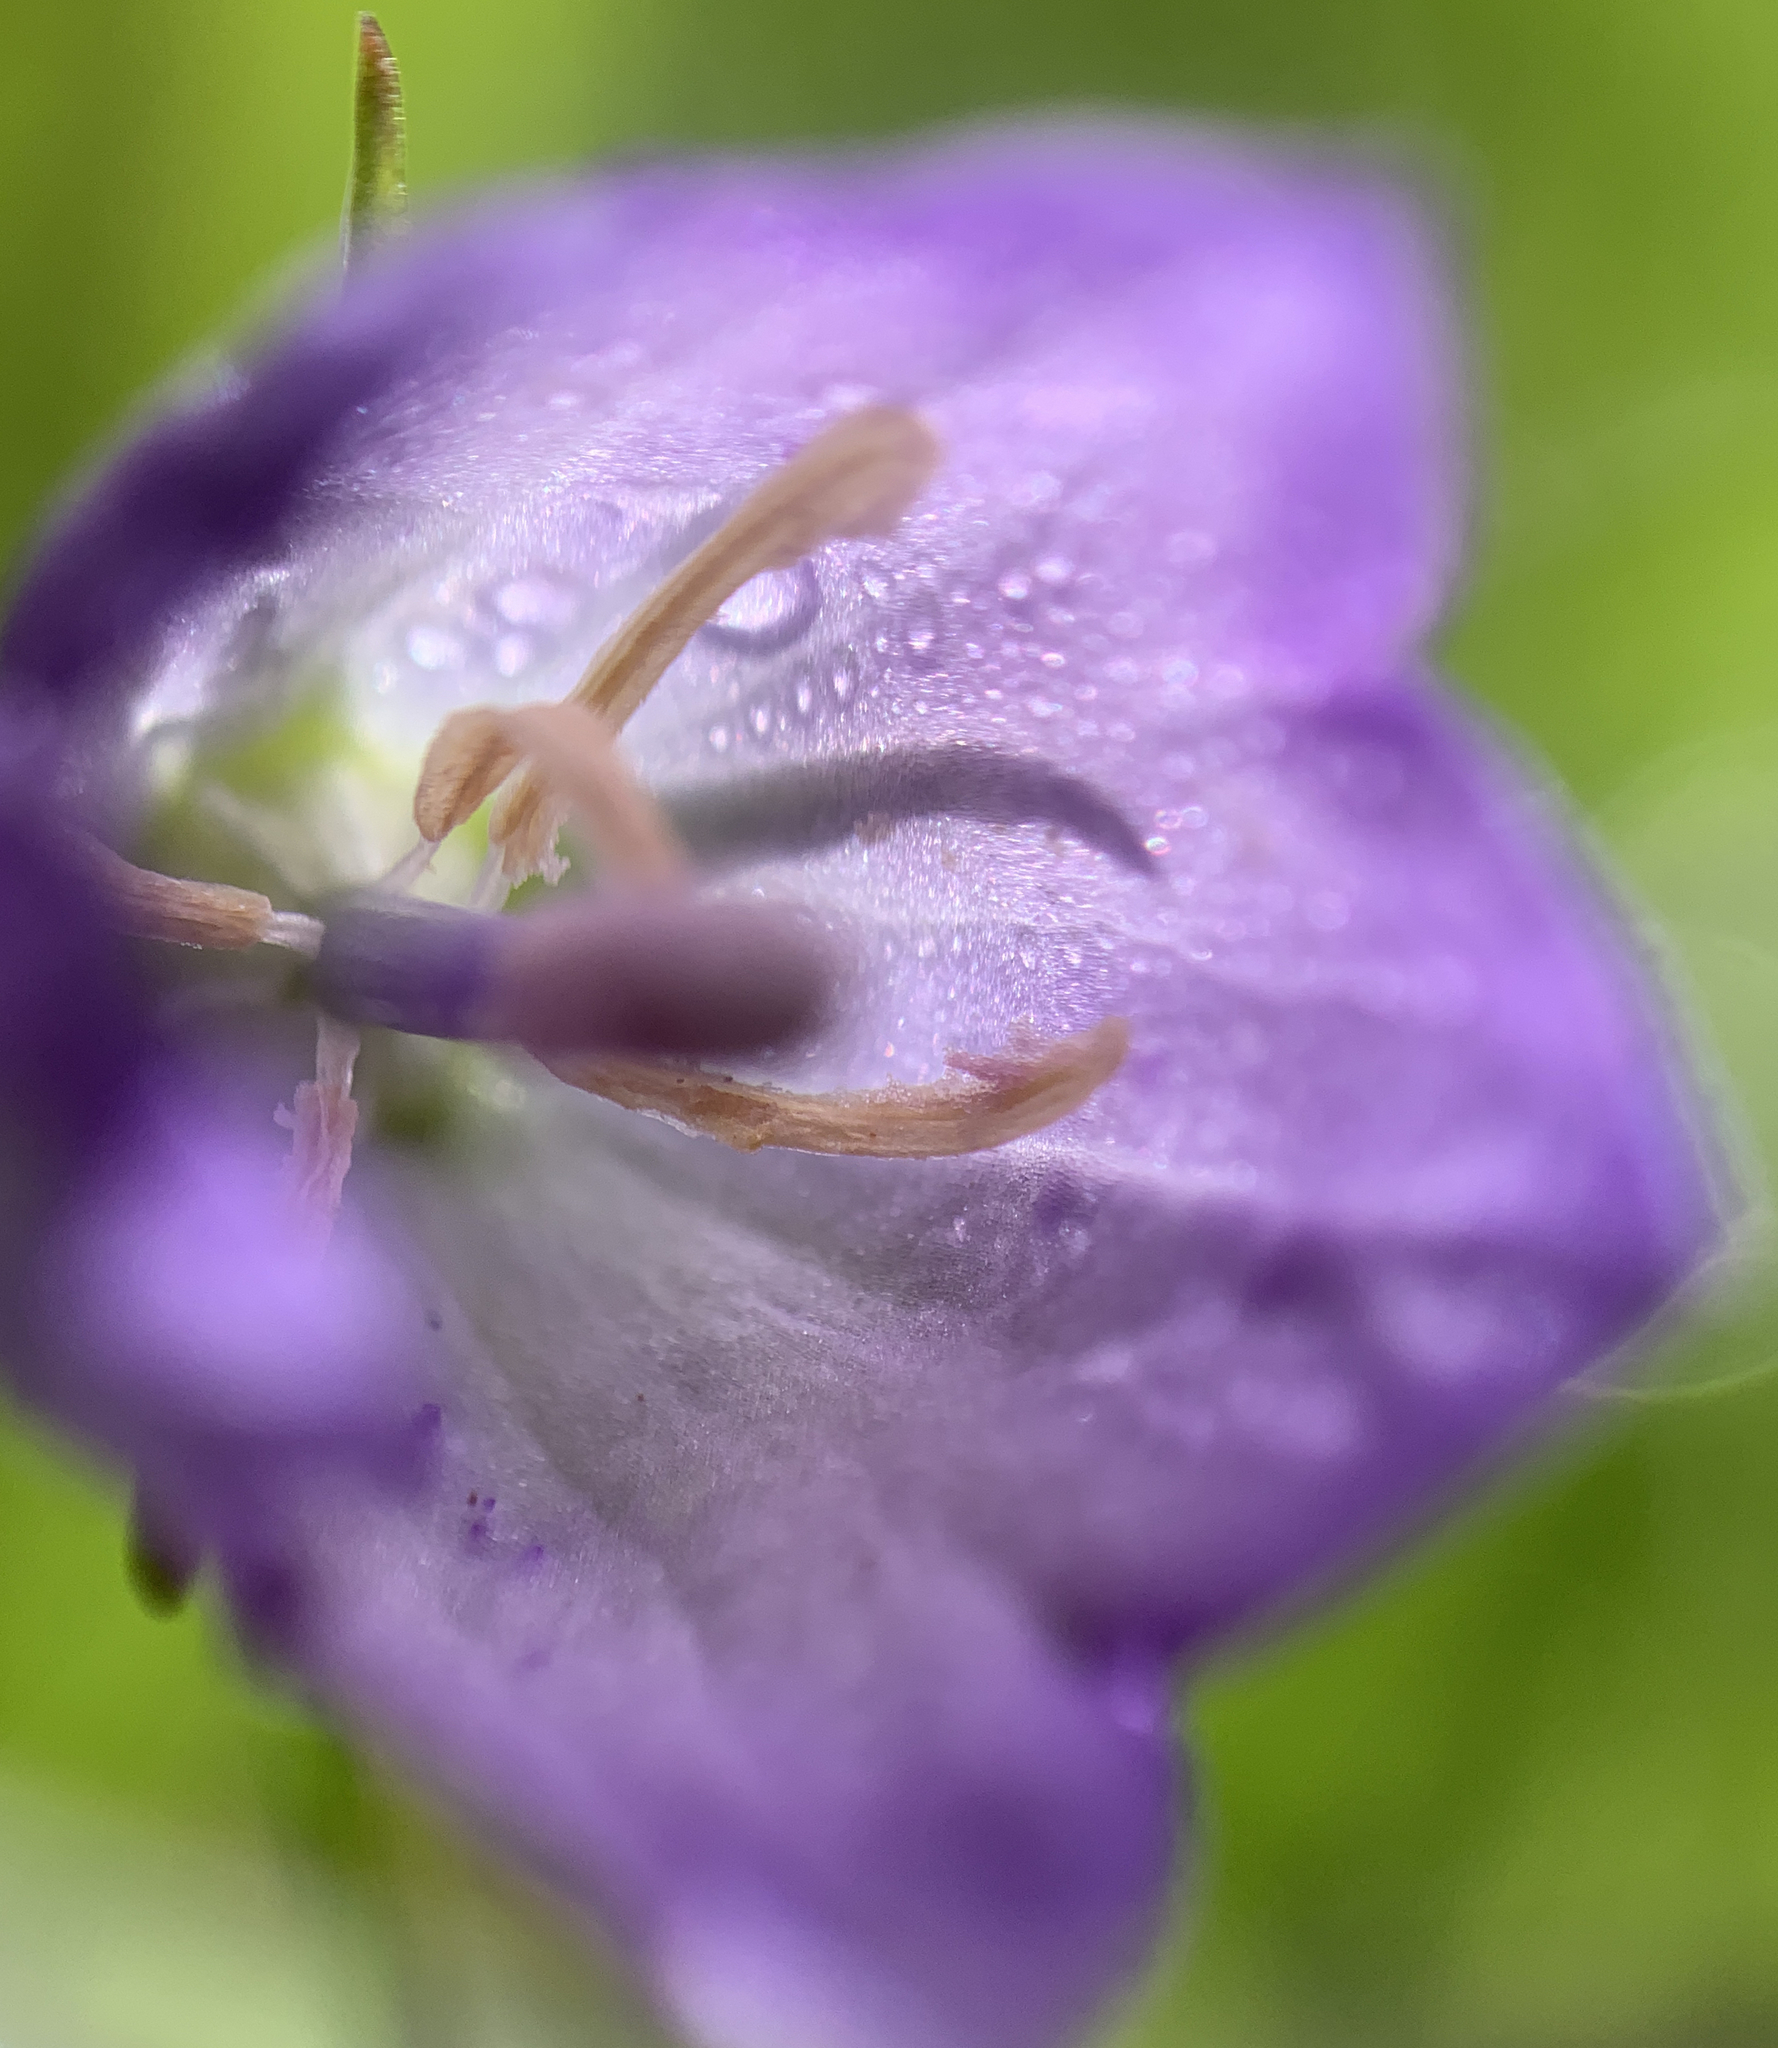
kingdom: Plantae
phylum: Tracheophyta
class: Magnoliopsida
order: Asterales
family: Campanulaceae
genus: Campanula
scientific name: Campanula petiolata
